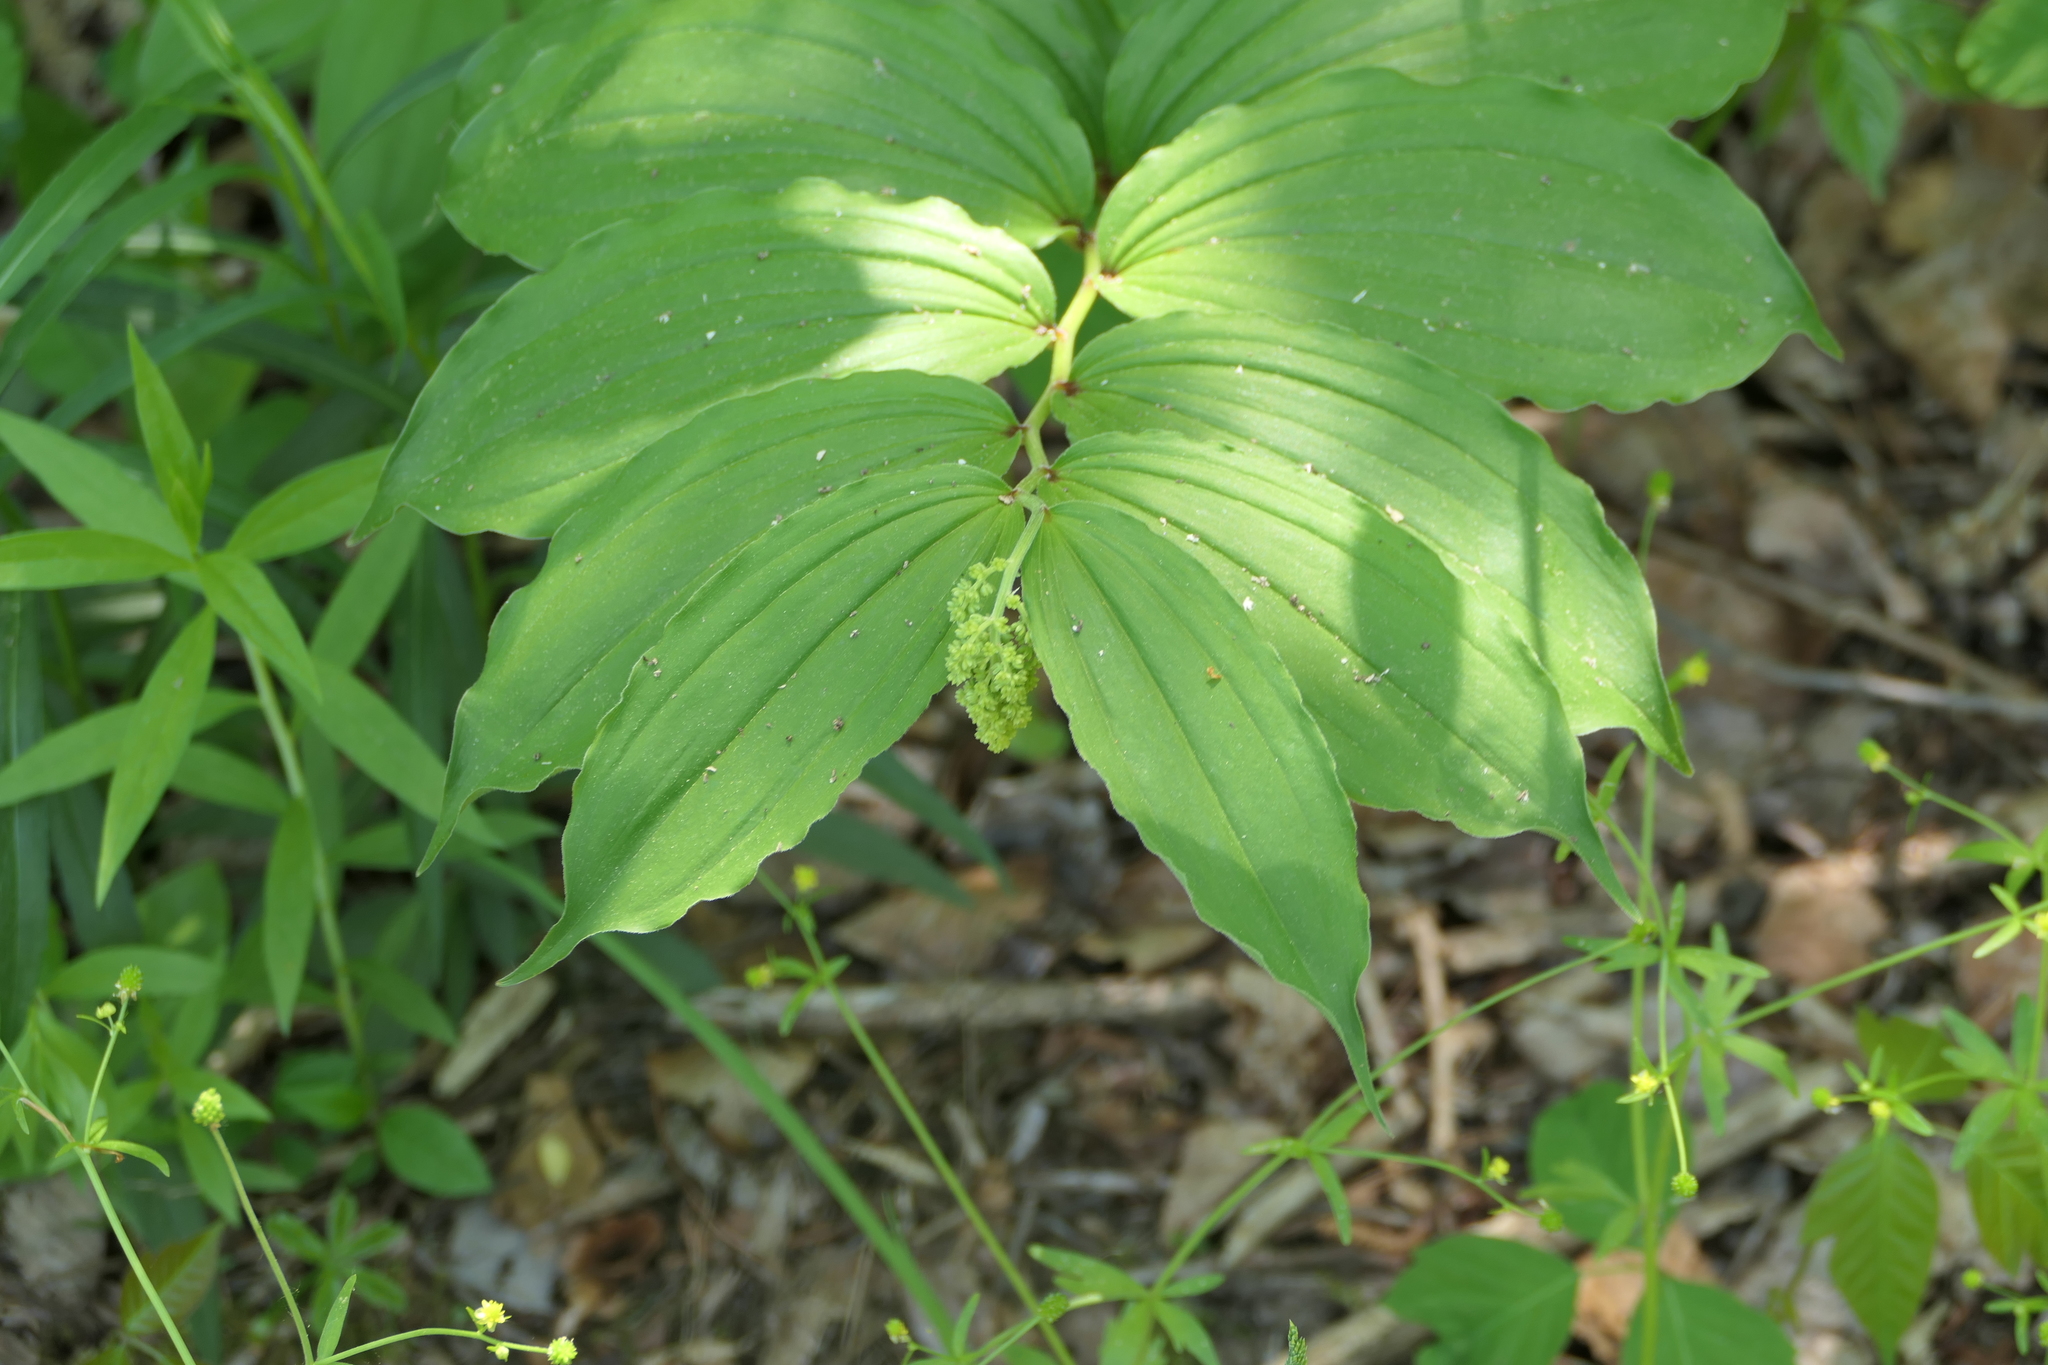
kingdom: Plantae
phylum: Tracheophyta
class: Liliopsida
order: Asparagales
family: Asparagaceae
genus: Maianthemum
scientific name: Maianthemum racemosum
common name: False spikenard
